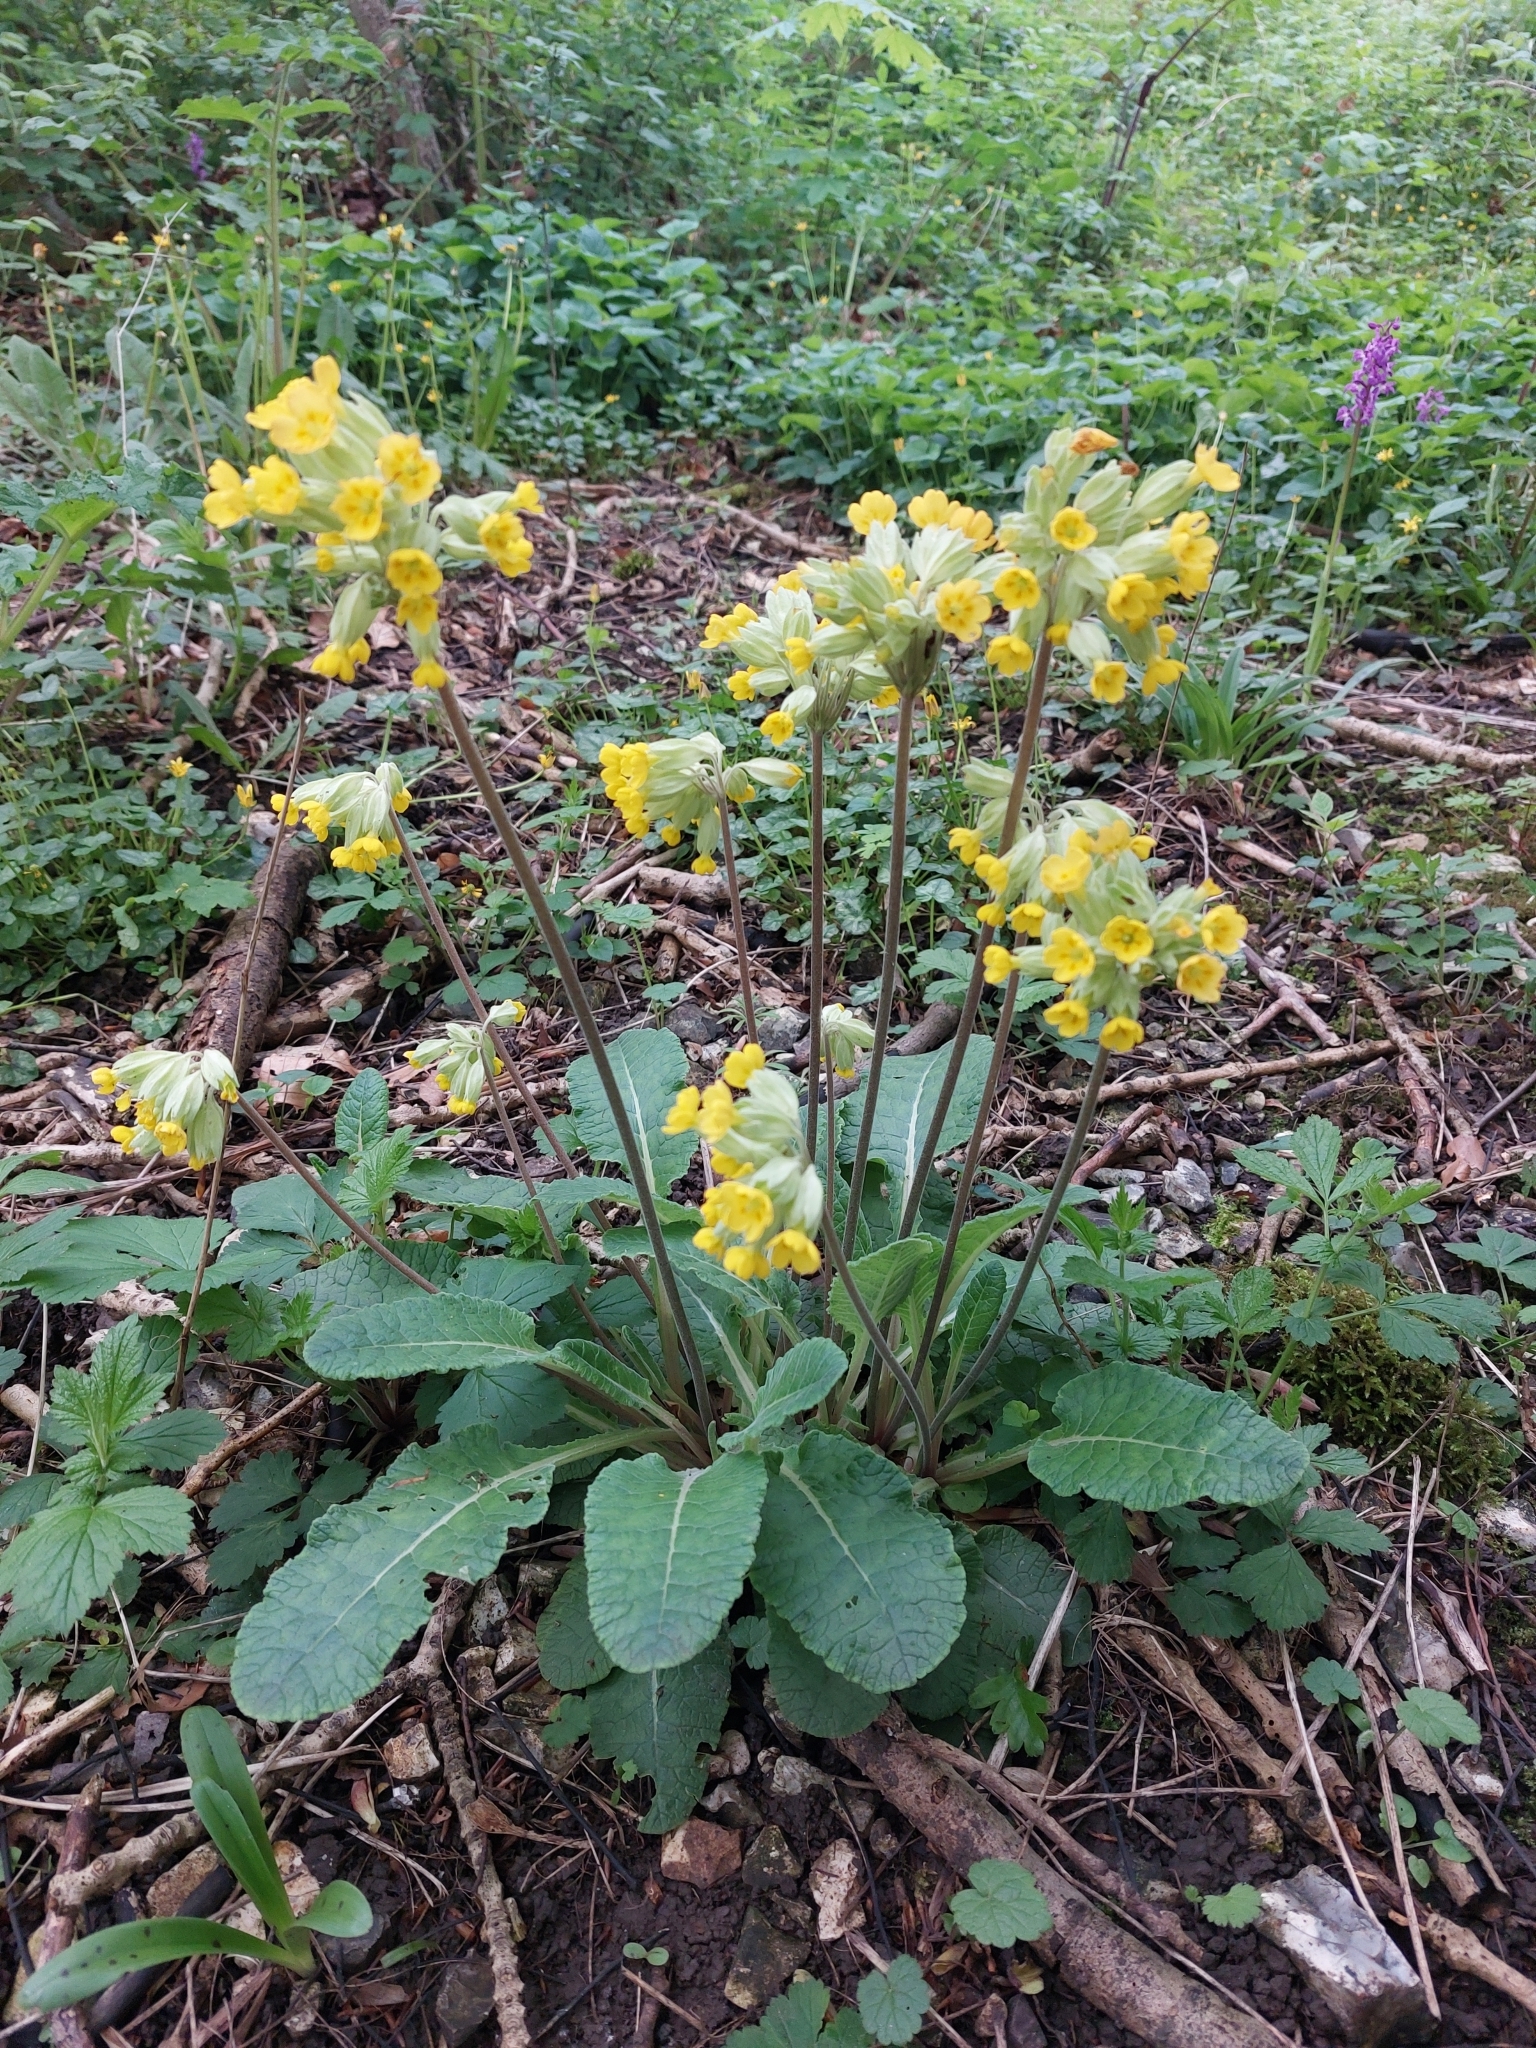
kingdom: Plantae
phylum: Tracheophyta
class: Magnoliopsida
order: Ericales
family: Primulaceae
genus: Primula
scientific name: Primula veris
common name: Cowslip
